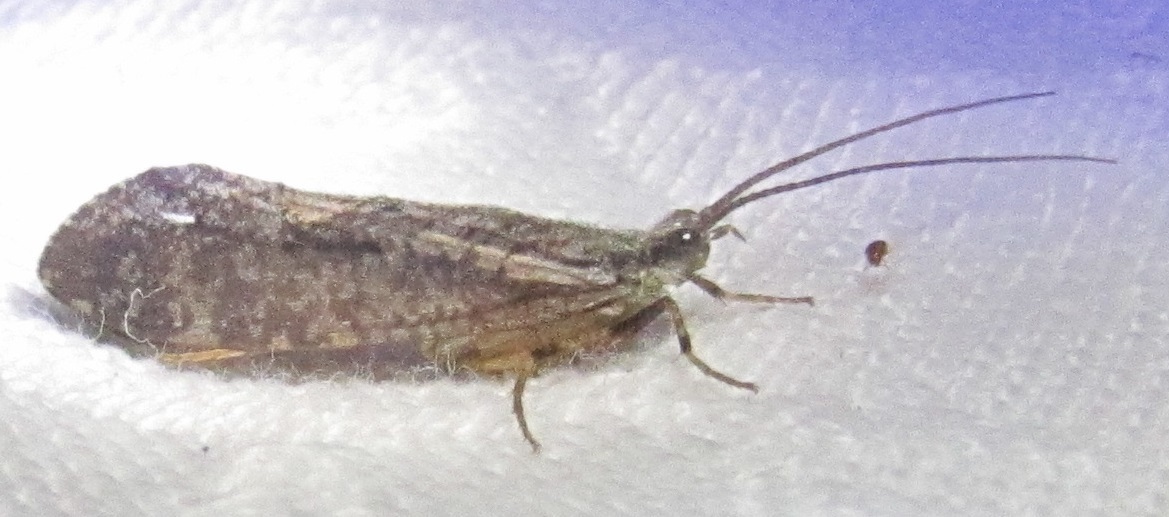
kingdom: Animalia
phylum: Arthropoda
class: Insecta
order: Trichoptera
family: Phryganeidae
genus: Agrypnia
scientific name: Agrypnia vestita
